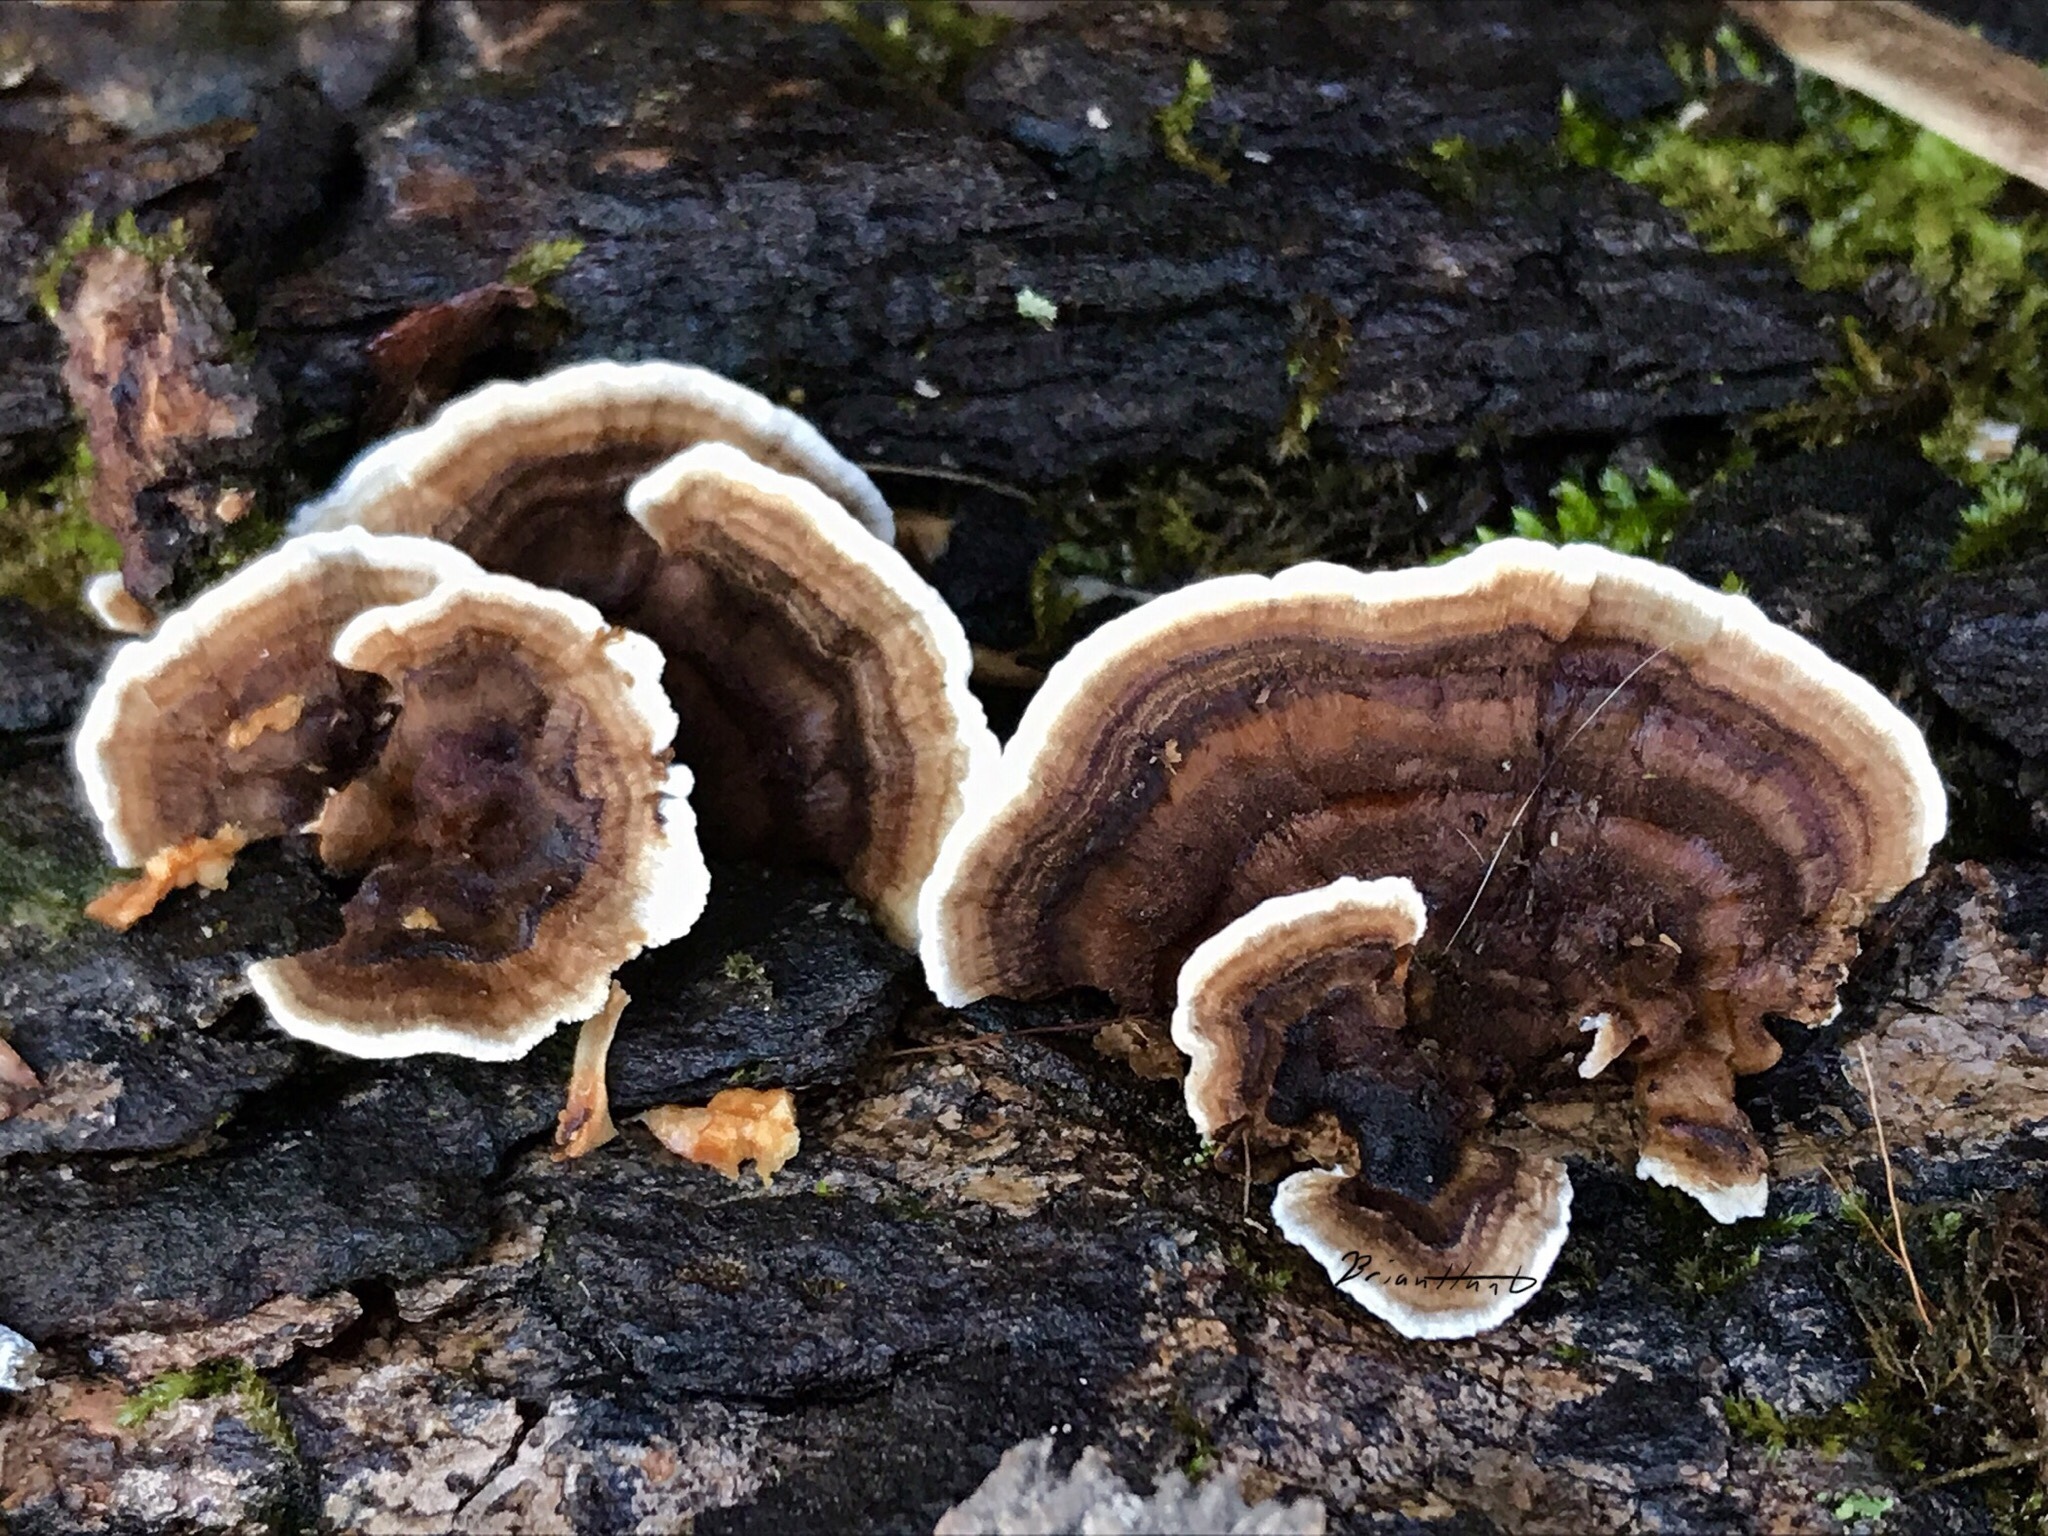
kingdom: Fungi
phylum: Basidiomycota
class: Agaricomycetes
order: Polyporales
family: Polyporaceae
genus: Trametes
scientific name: Trametes versicolor
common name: Turkeytail
